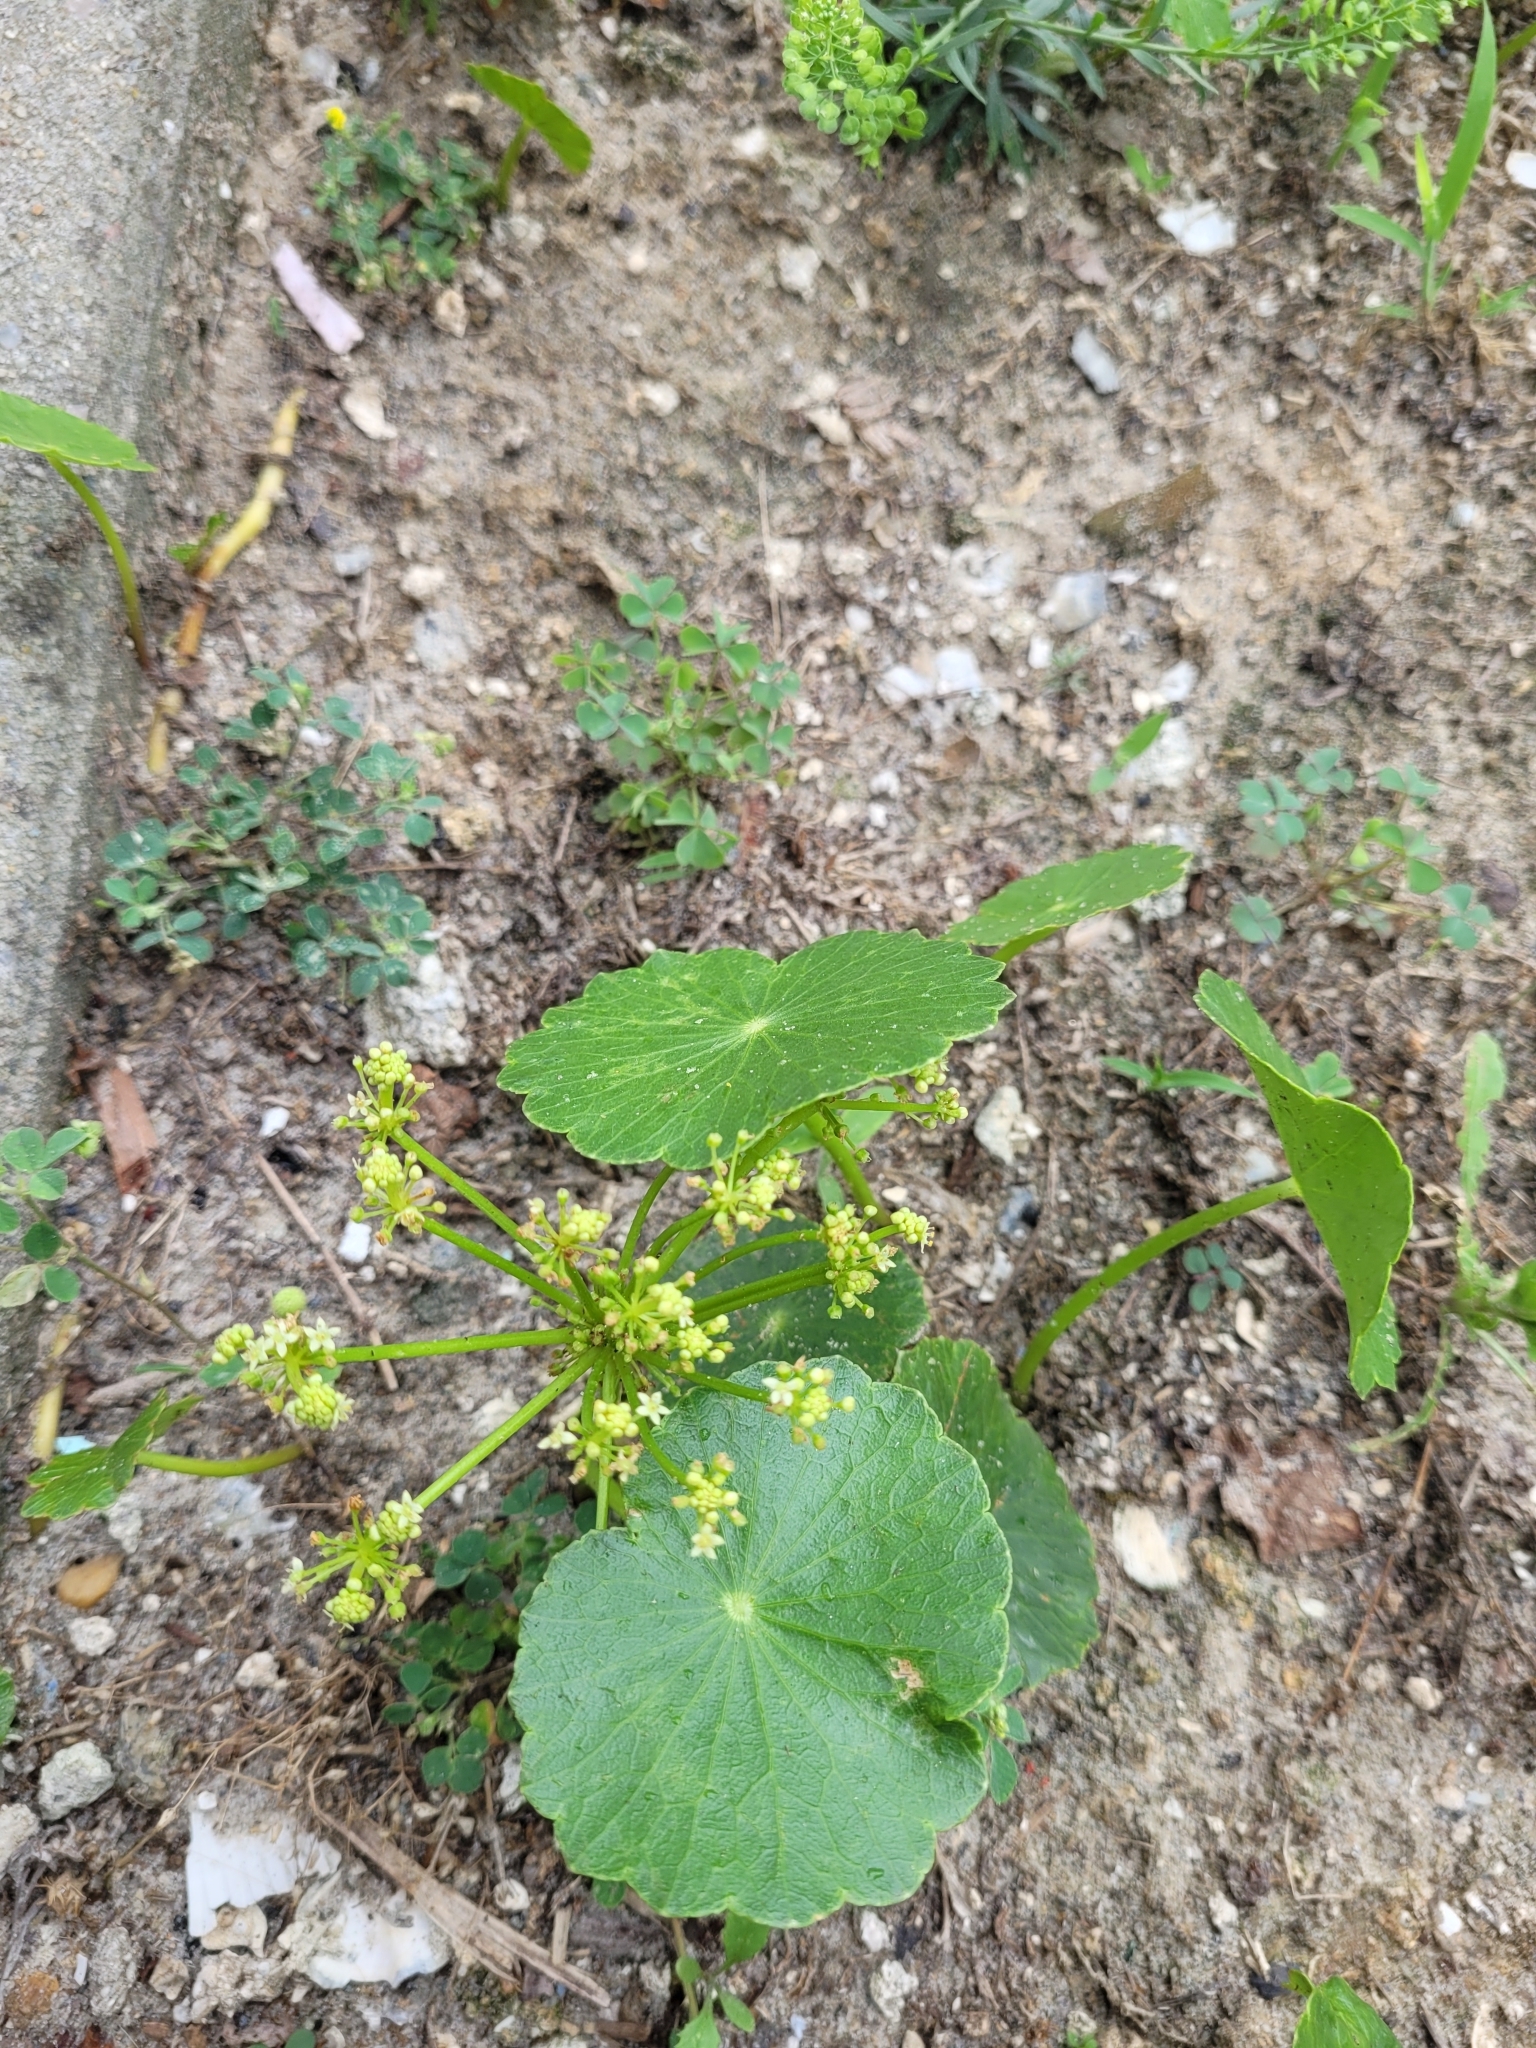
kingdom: Plantae
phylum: Tracheophyta
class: Magnoliopsida
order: Apiales
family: Araliaceae
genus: Hydrocotyle
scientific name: Hydrocotyle bonariensis
